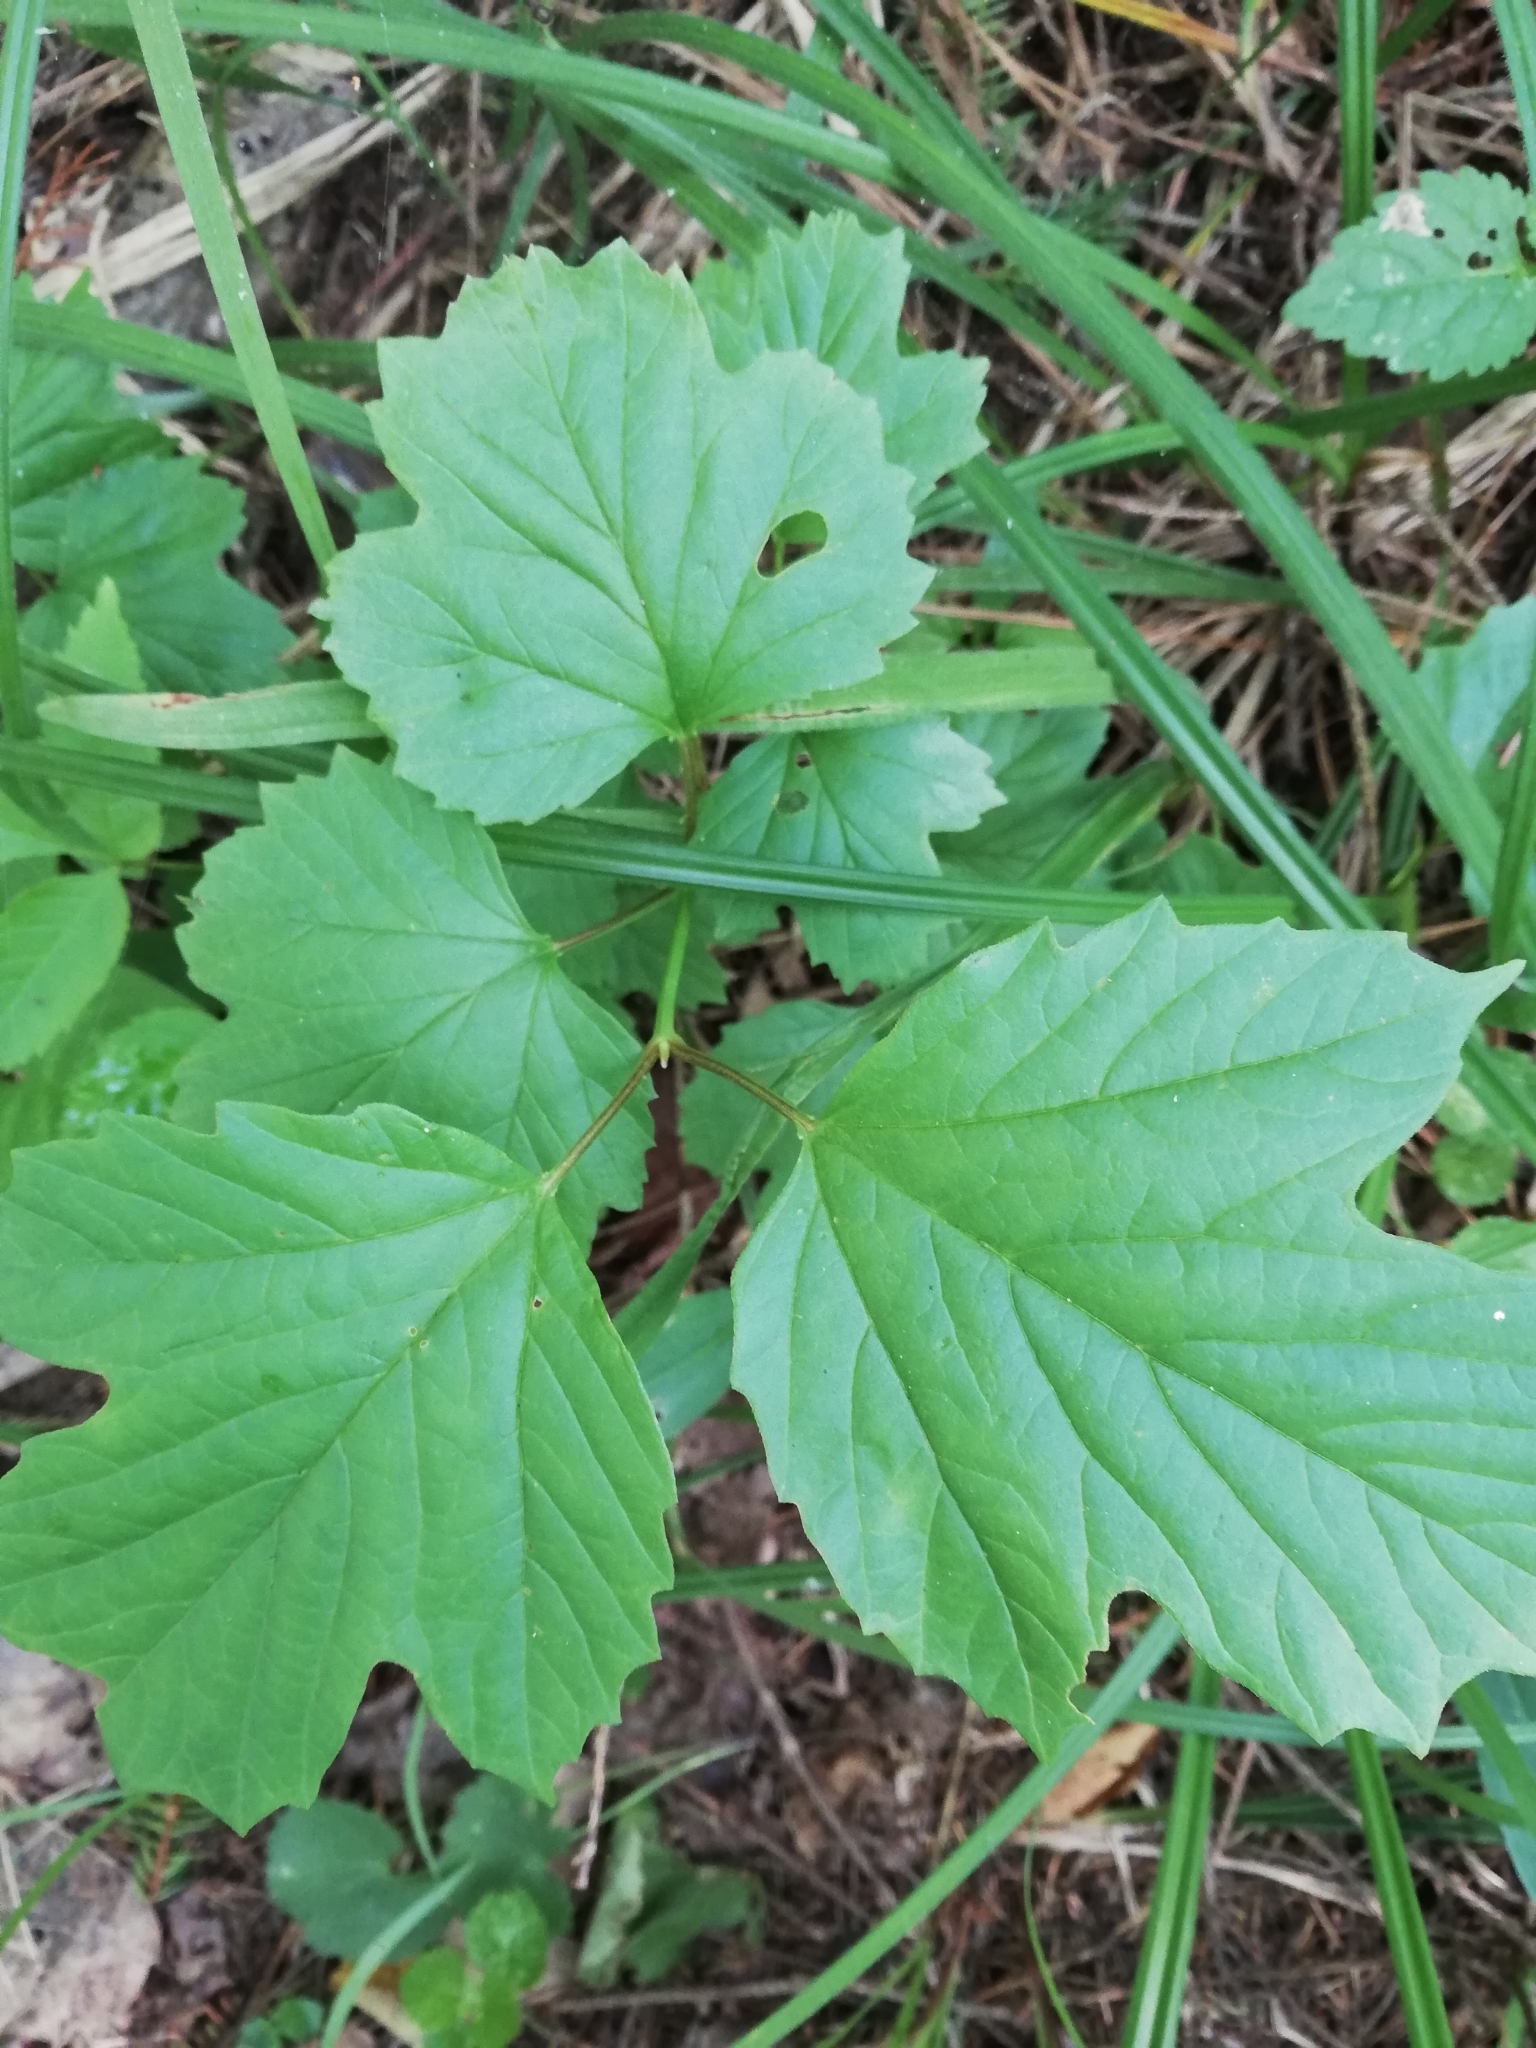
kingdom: Plantae
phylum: Tracheophyta
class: Magnoliopsida
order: Dipsacales
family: Viburnaceae
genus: Viburnum
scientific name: Viburnum opulus
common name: Guelder-rose
